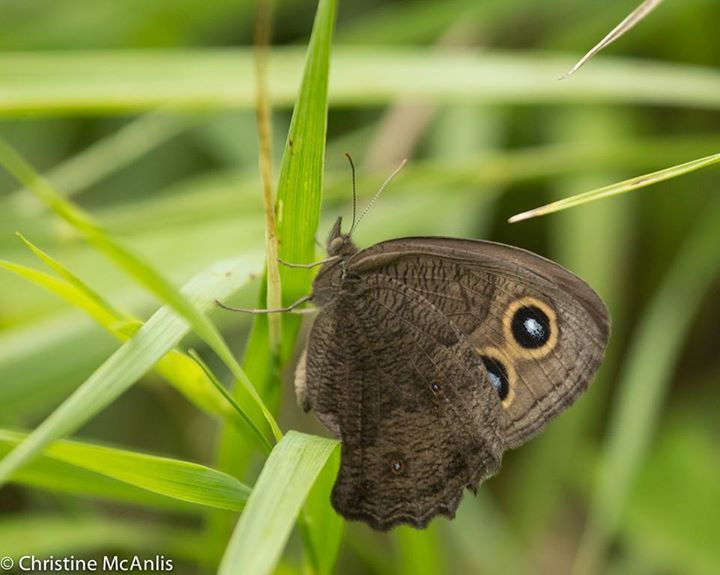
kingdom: Animalia
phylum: Arthropoda
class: Insecta
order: Lepidoptera
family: Nymphalidae
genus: Cercyonis
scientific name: Cercyonis pegala
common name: Common wood-nymph
